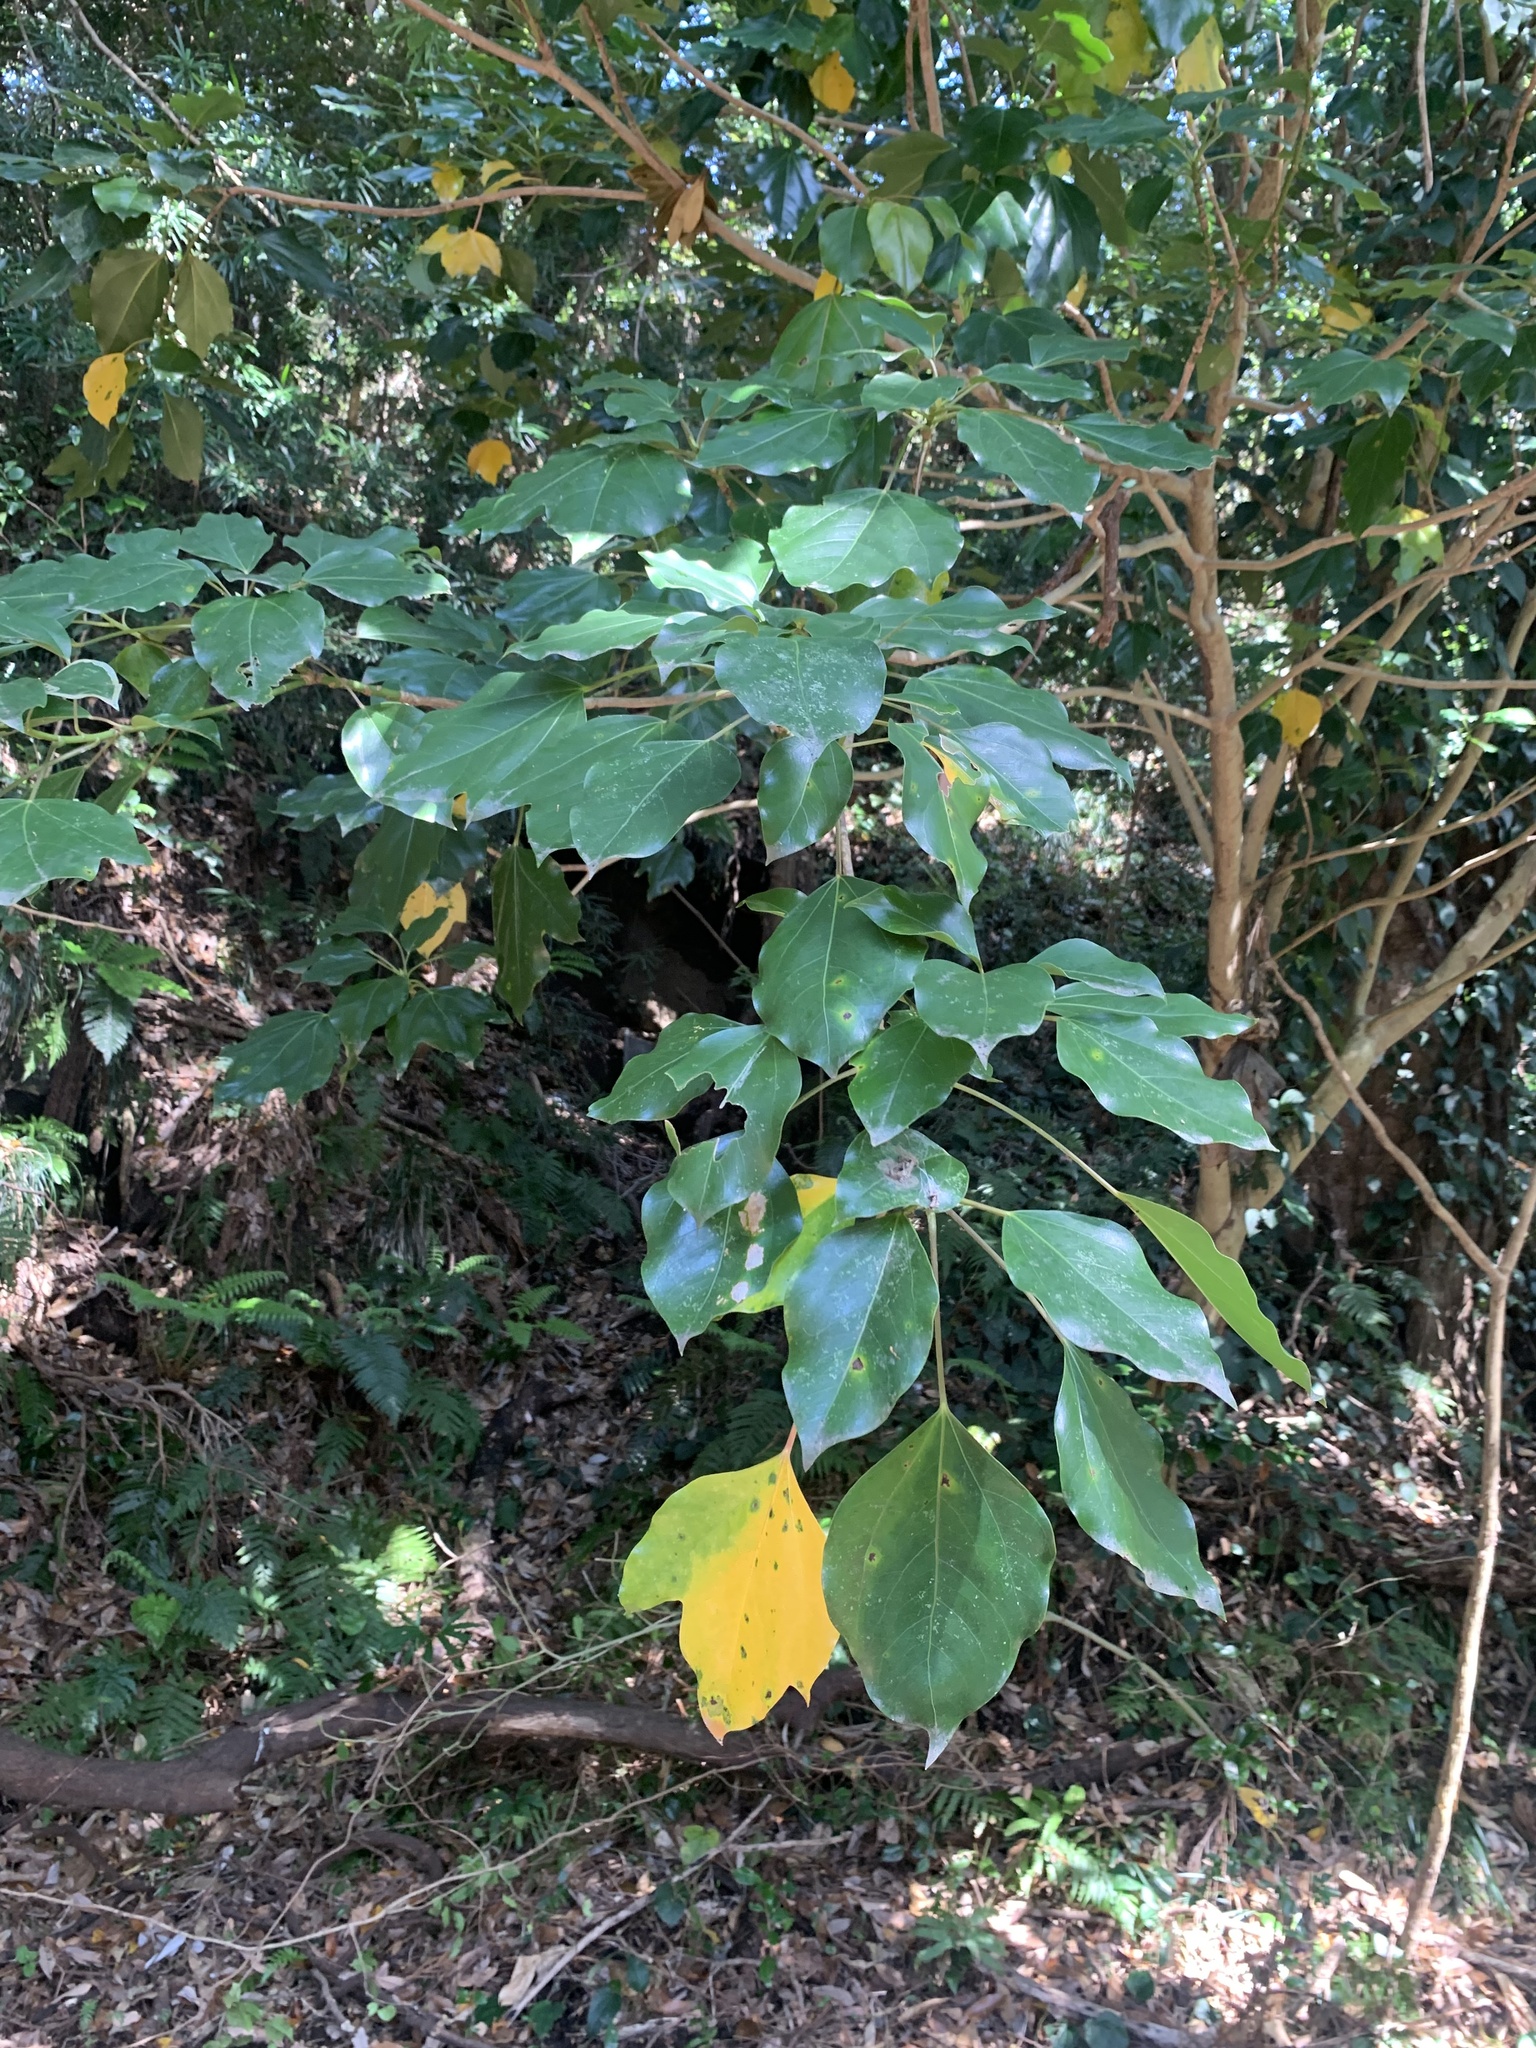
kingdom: Plantae
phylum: Tracheophyta
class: Magnoliopsida
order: Apiales
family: Araliaceae
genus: Dendropanax
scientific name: Dendropanax trifidus
